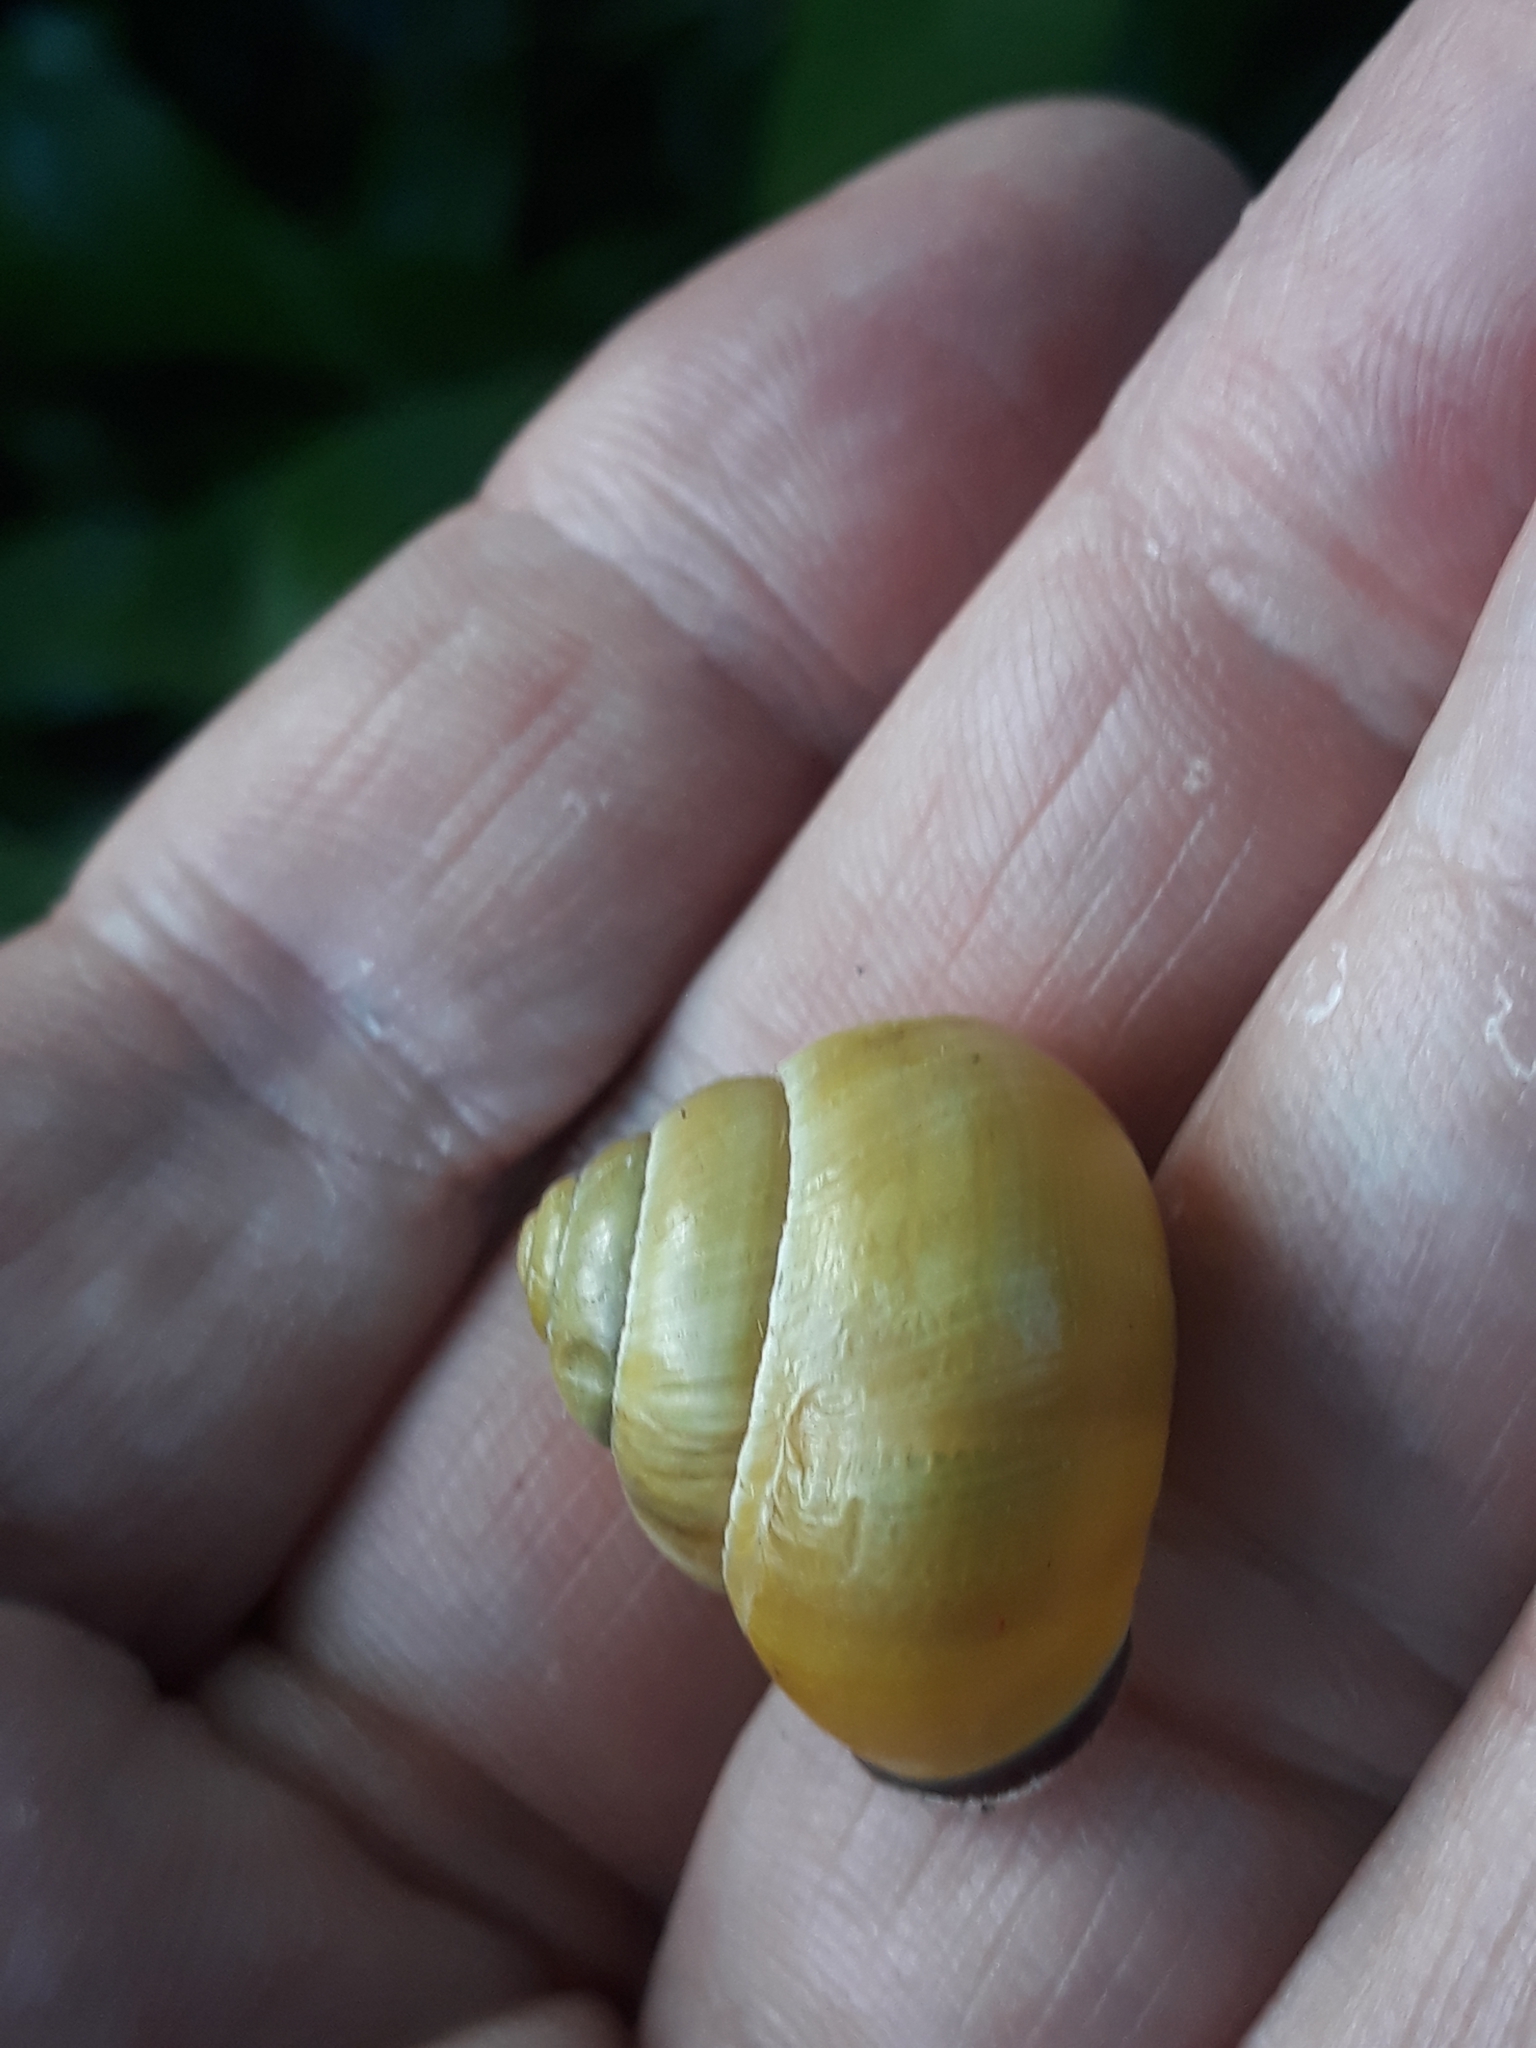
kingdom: Animalia
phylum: Mollusca
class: Gastropoda
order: Stylommatophora
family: Helicidae
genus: Cepaea
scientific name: Cepaea nemoralis
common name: Grovesnail
